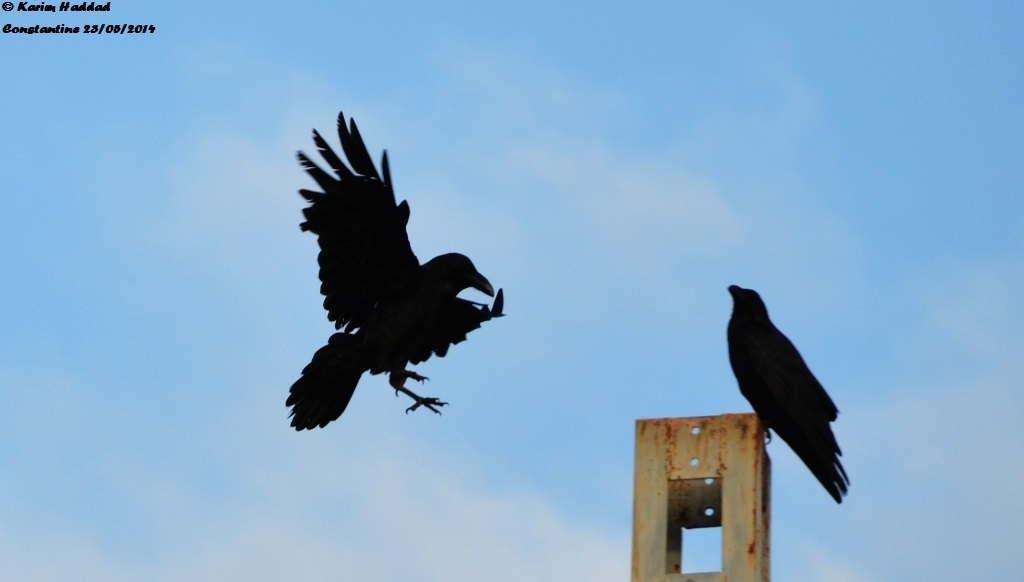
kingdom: Animalia
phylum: Chordata
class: Aves
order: Passeriformes
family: Corvidae
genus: Corvus
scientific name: Corvus corax
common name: Common raven
